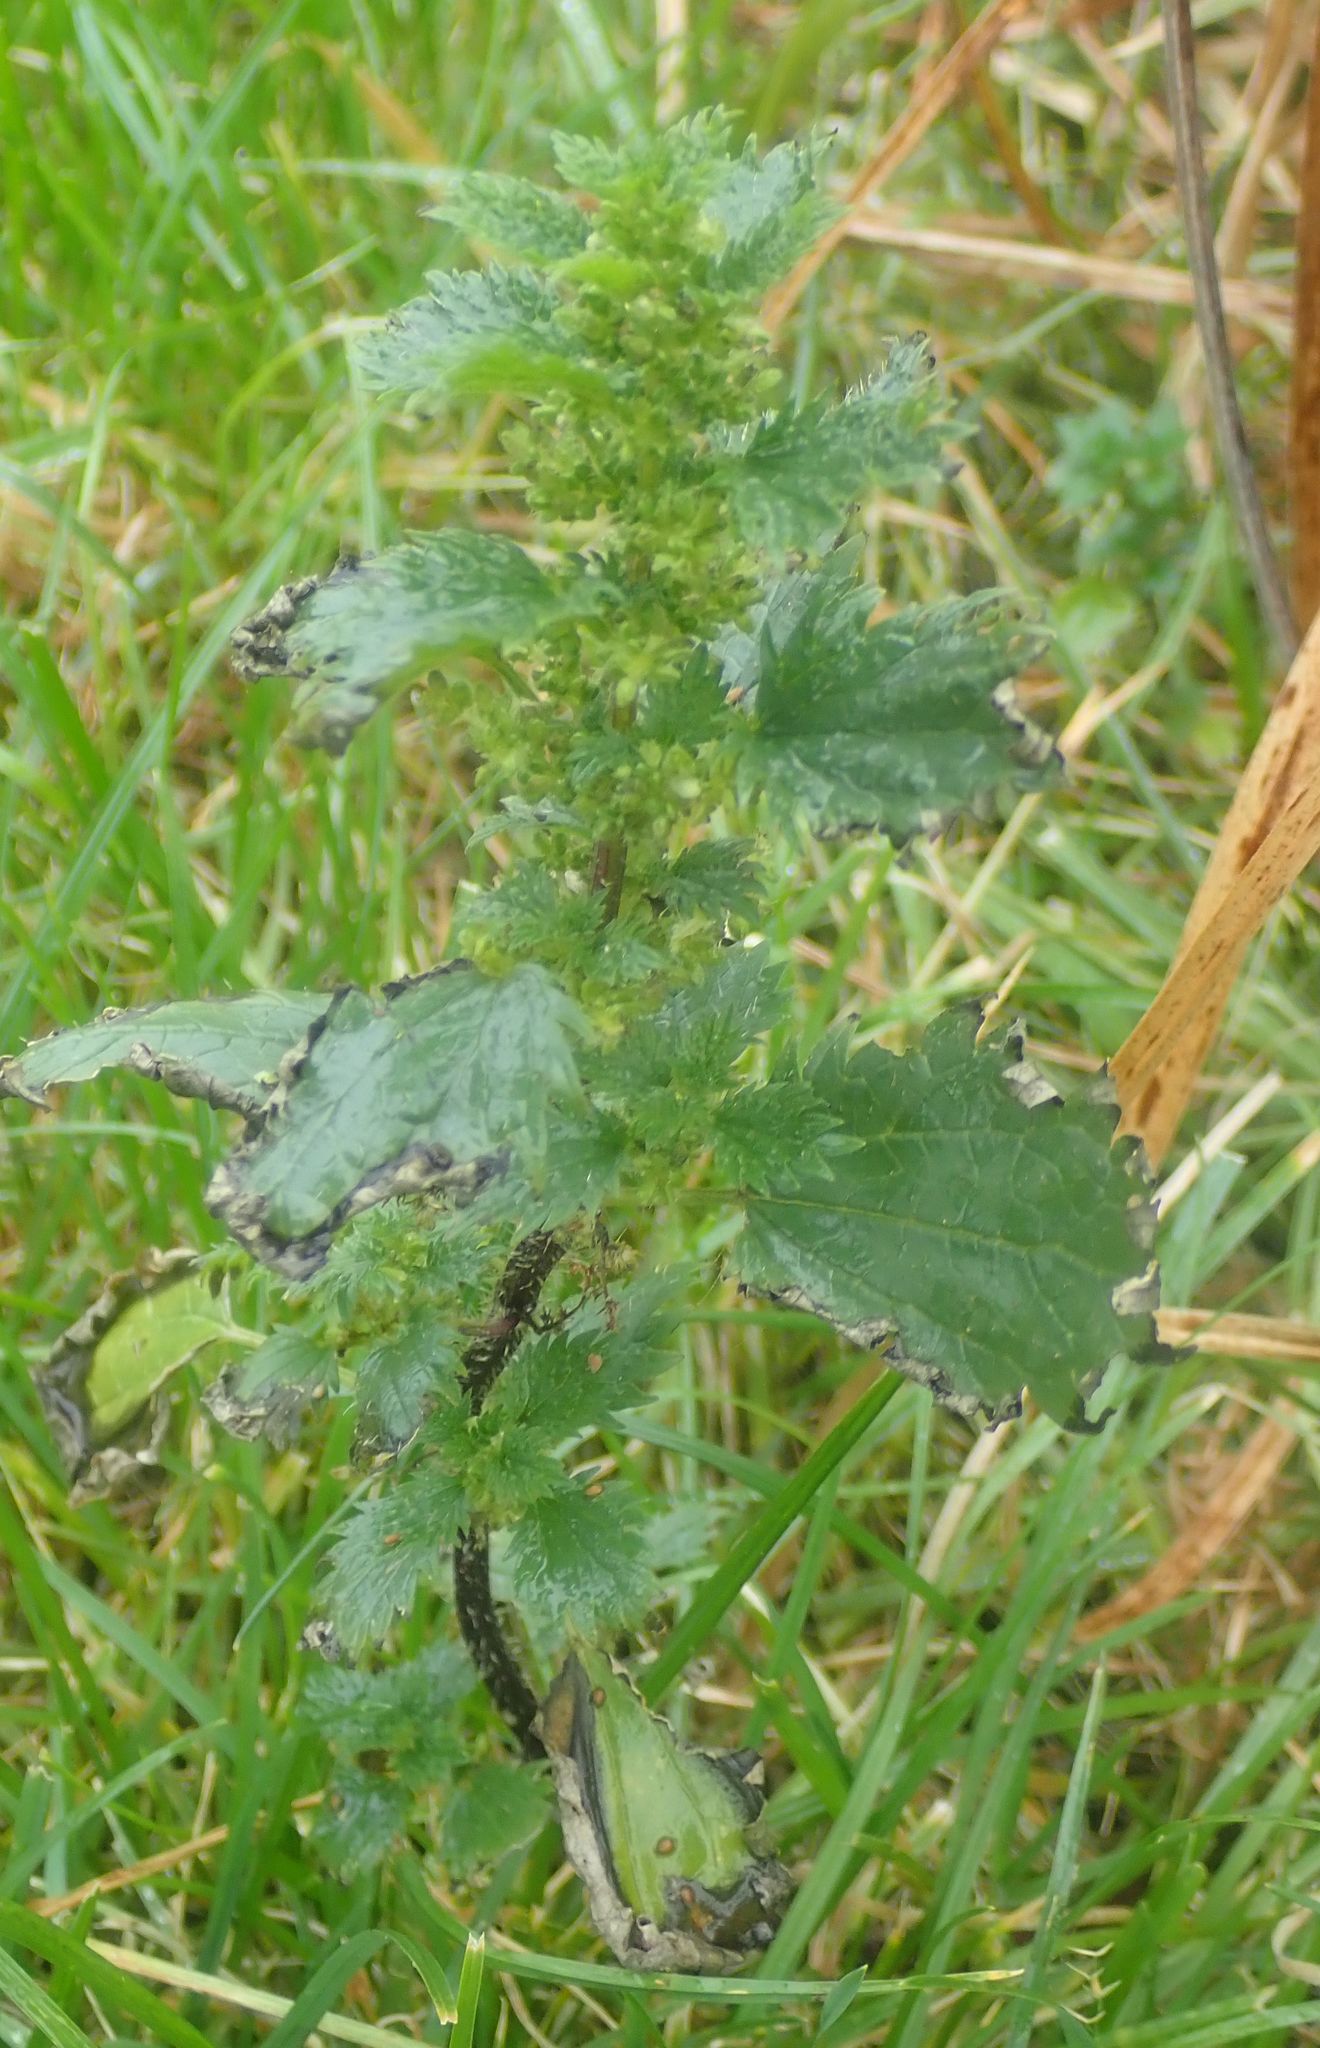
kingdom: Plantae
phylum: Tracheophyta
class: Magnoliopsida
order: Rosales
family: Urticaceae
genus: Urtica
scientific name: Urtica urens
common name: Dwarf nettle
